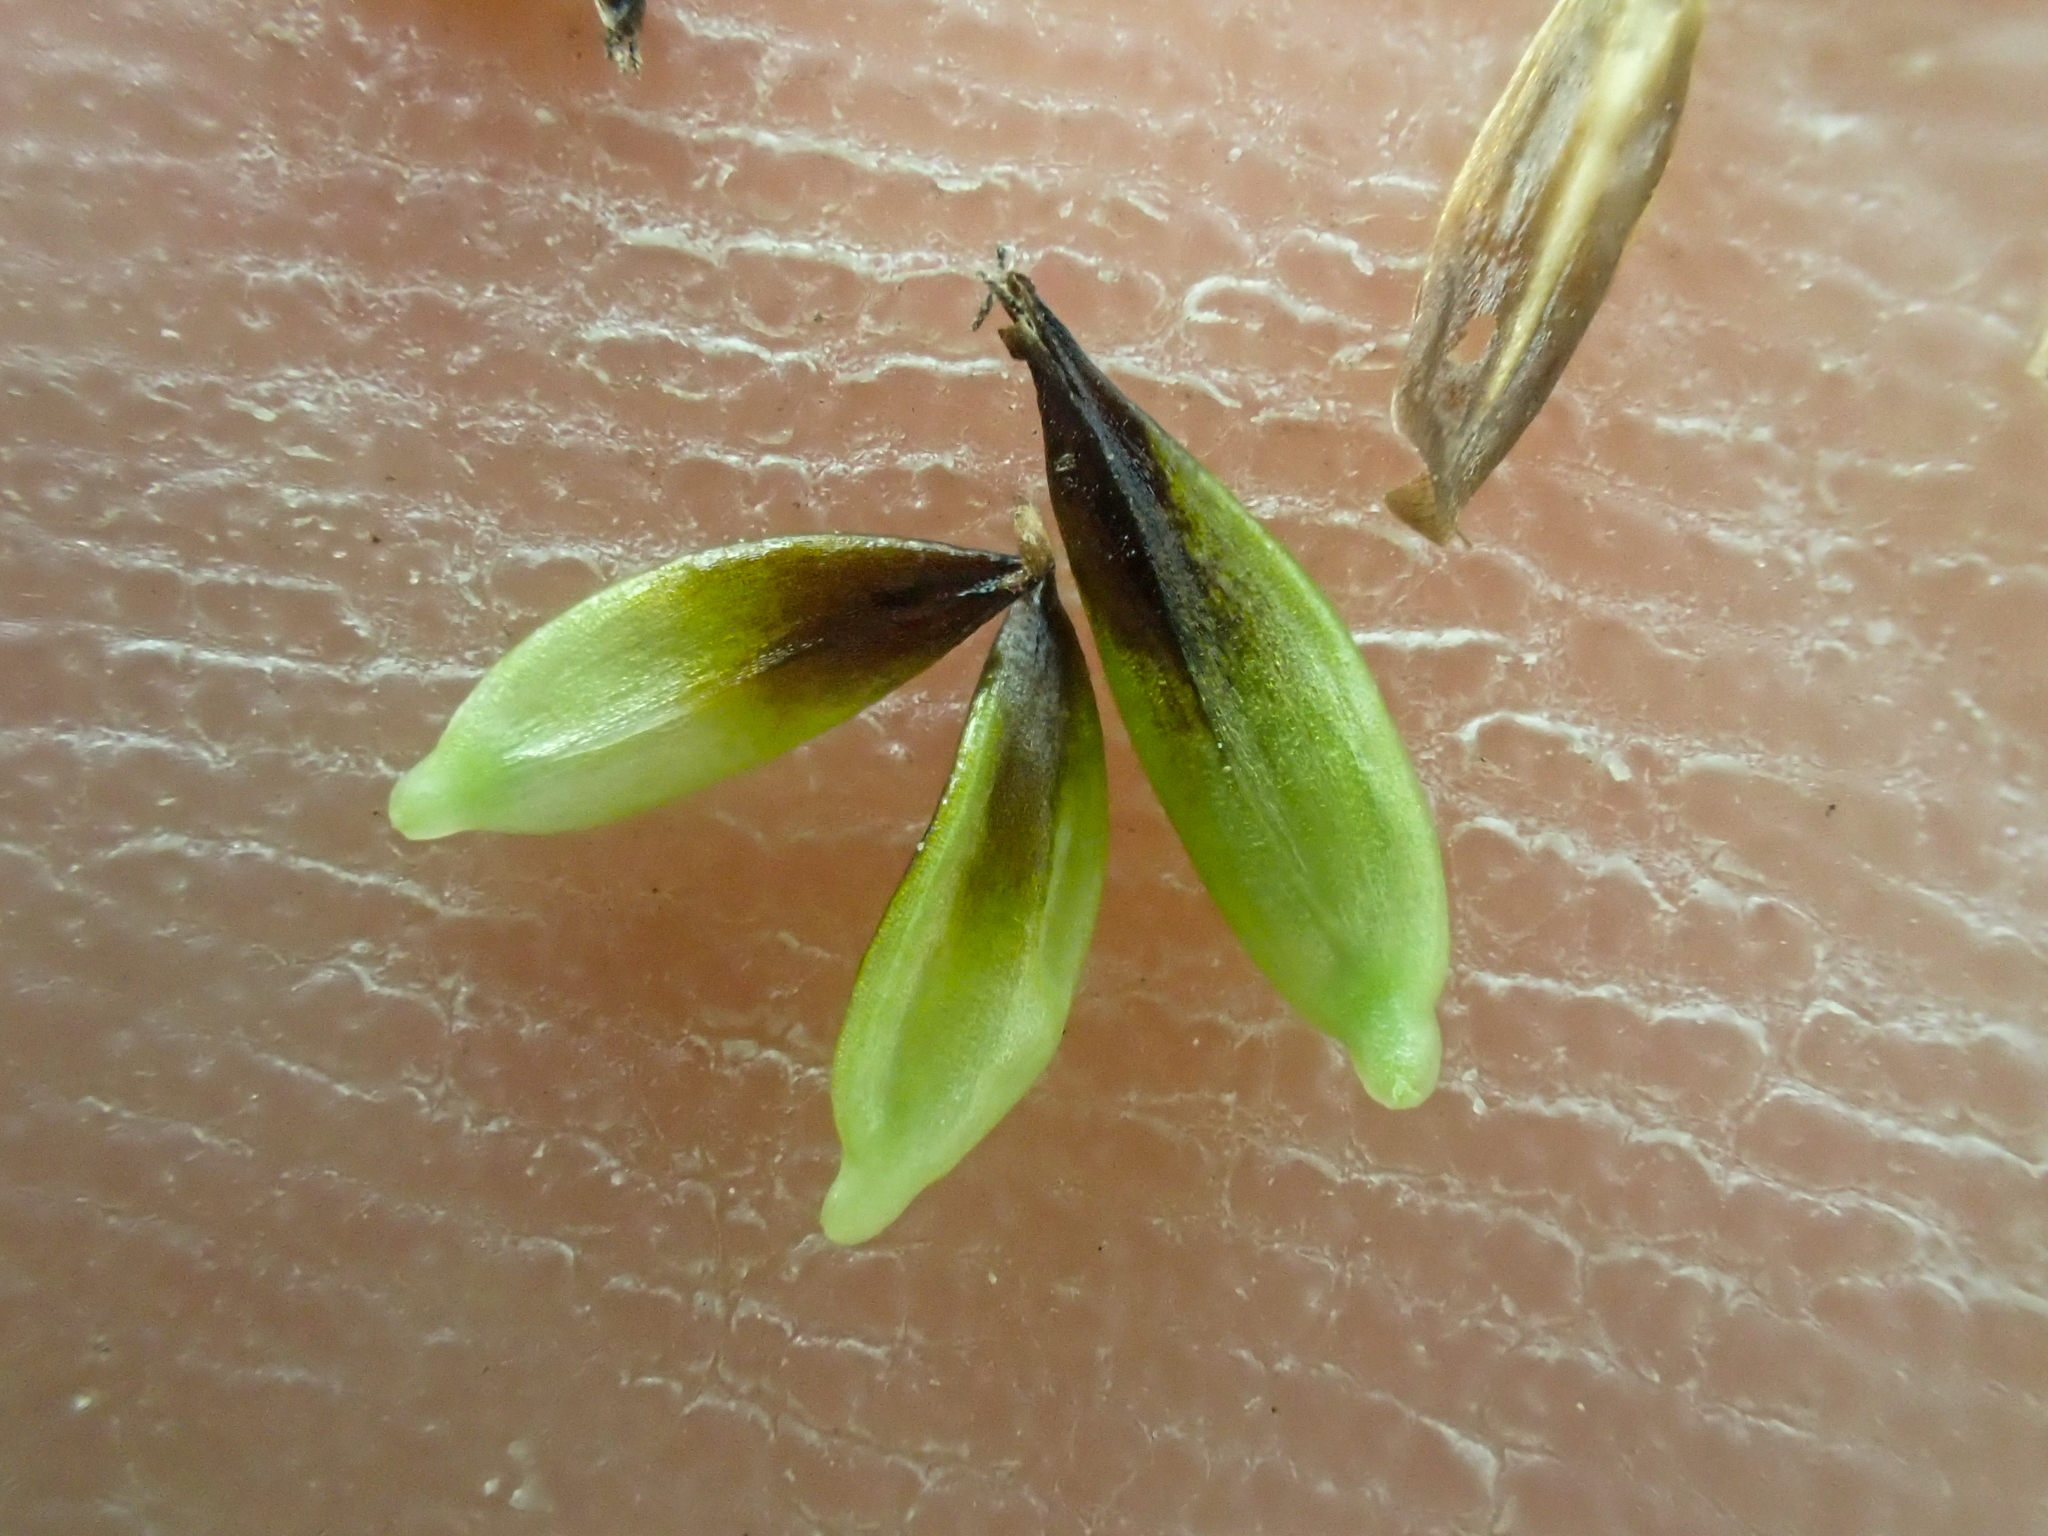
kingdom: Plantae
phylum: Tracheophyta
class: Liliopsida
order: Poales
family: Cyperaceae
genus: Carex
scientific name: Carex nigricans
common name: Black alpine sedge
